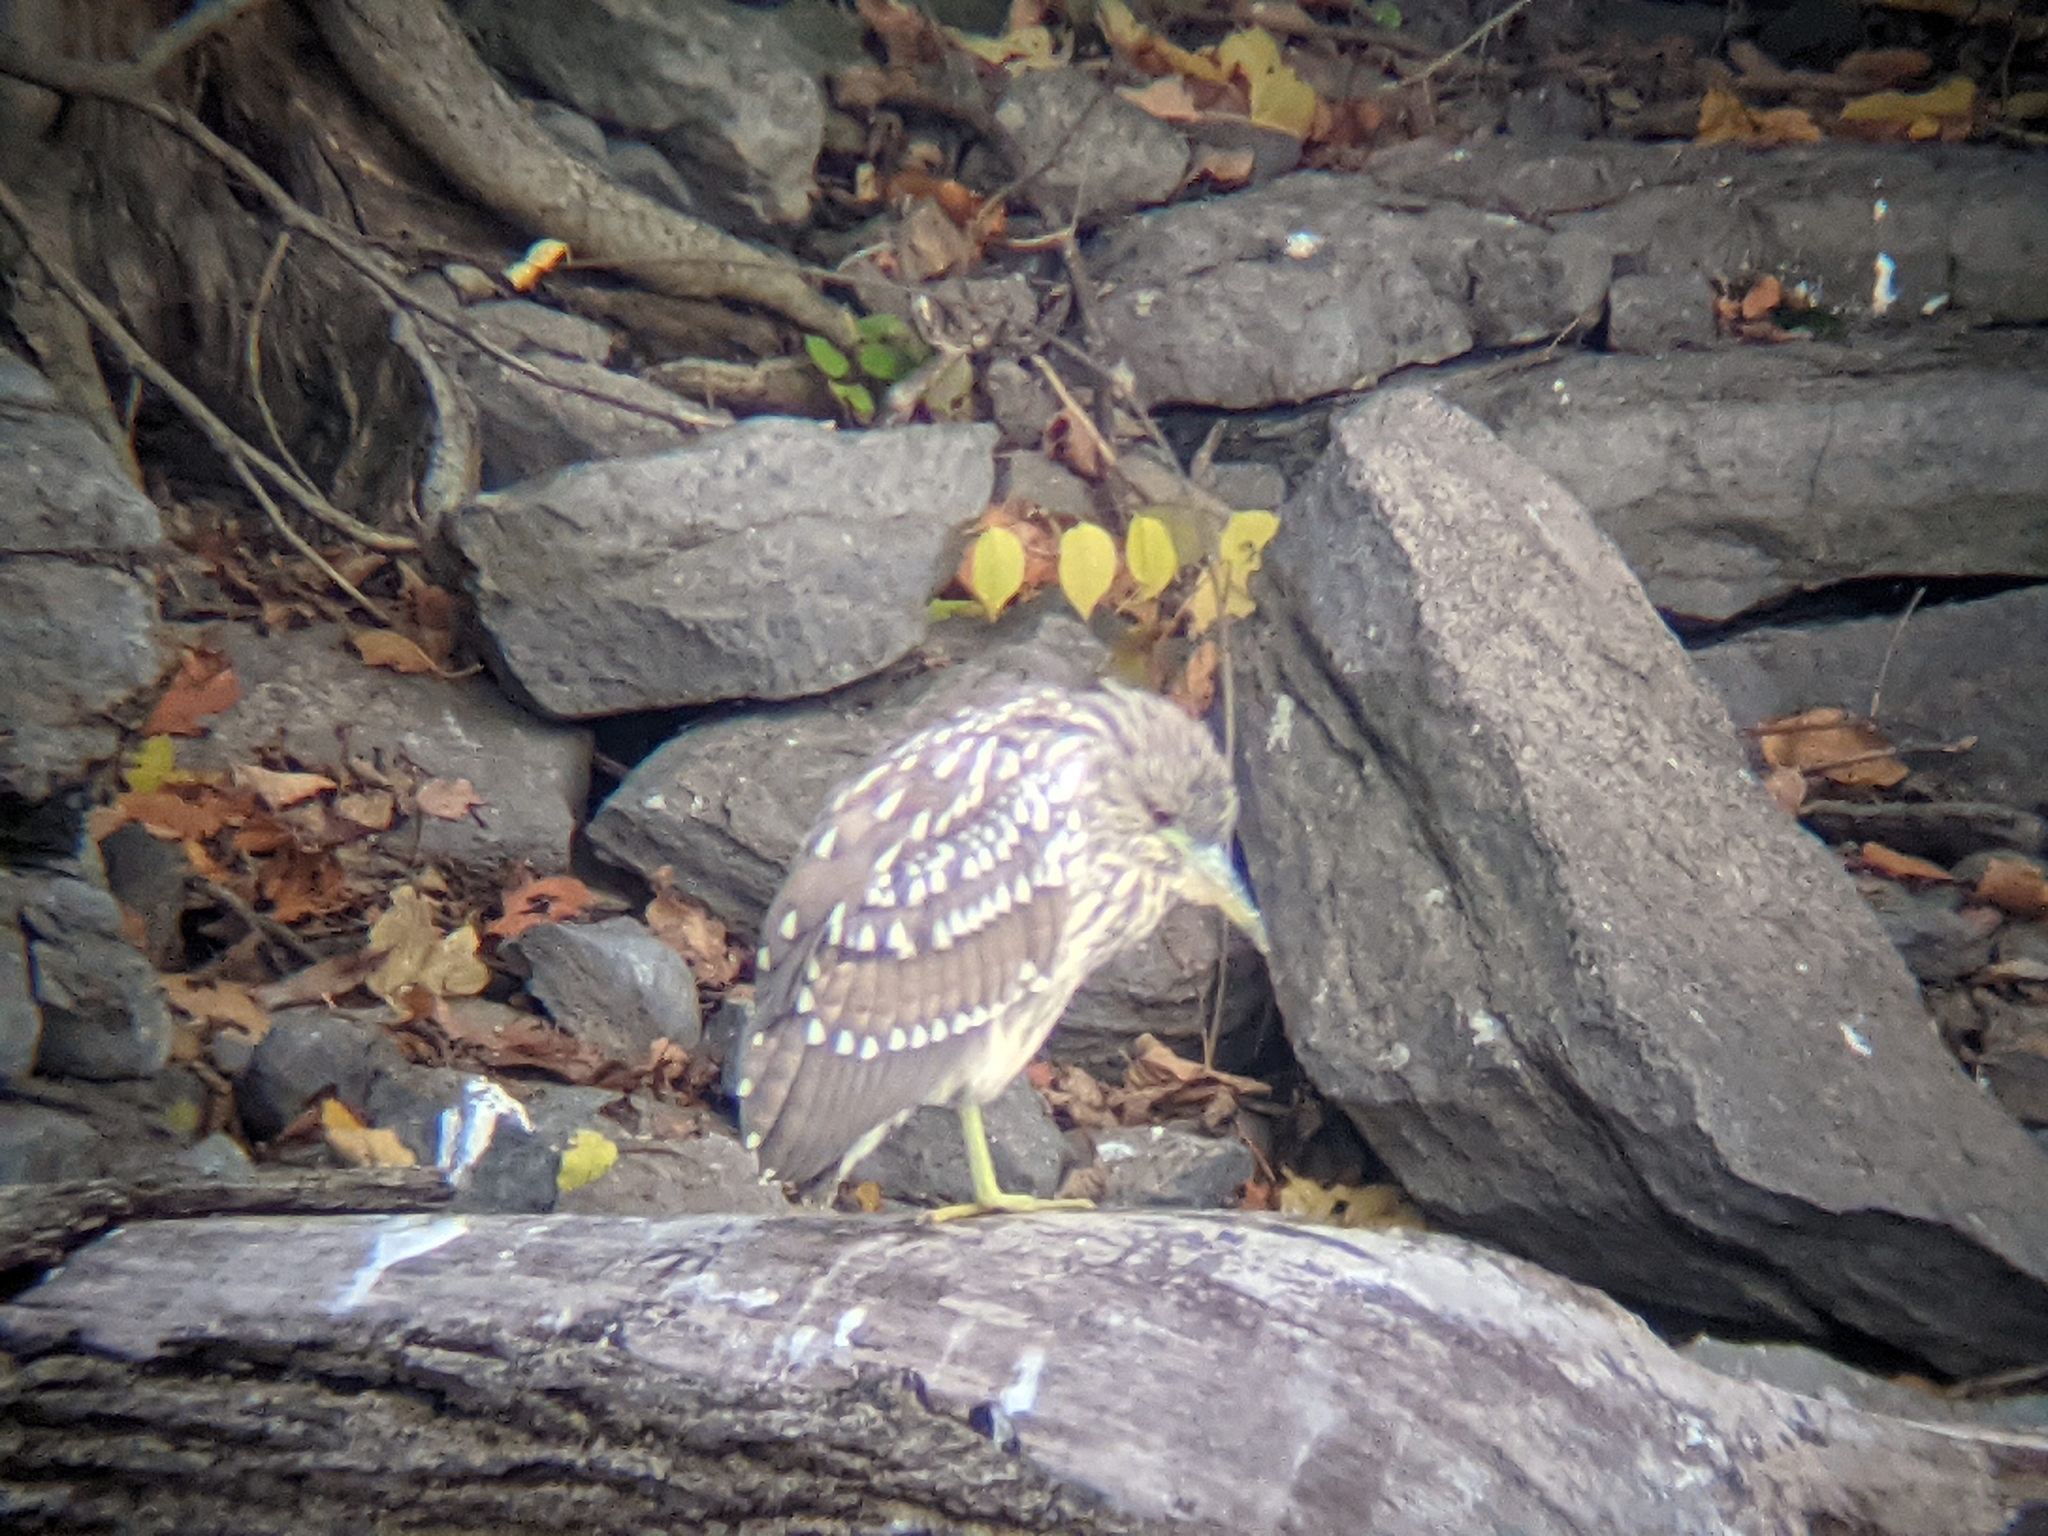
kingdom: Animalia
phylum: Chordata
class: Aves
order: Pelecaniformes
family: Ardeidae
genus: Nycticorax
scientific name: Nycticorax nycticorax
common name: Black-crowned night heron
